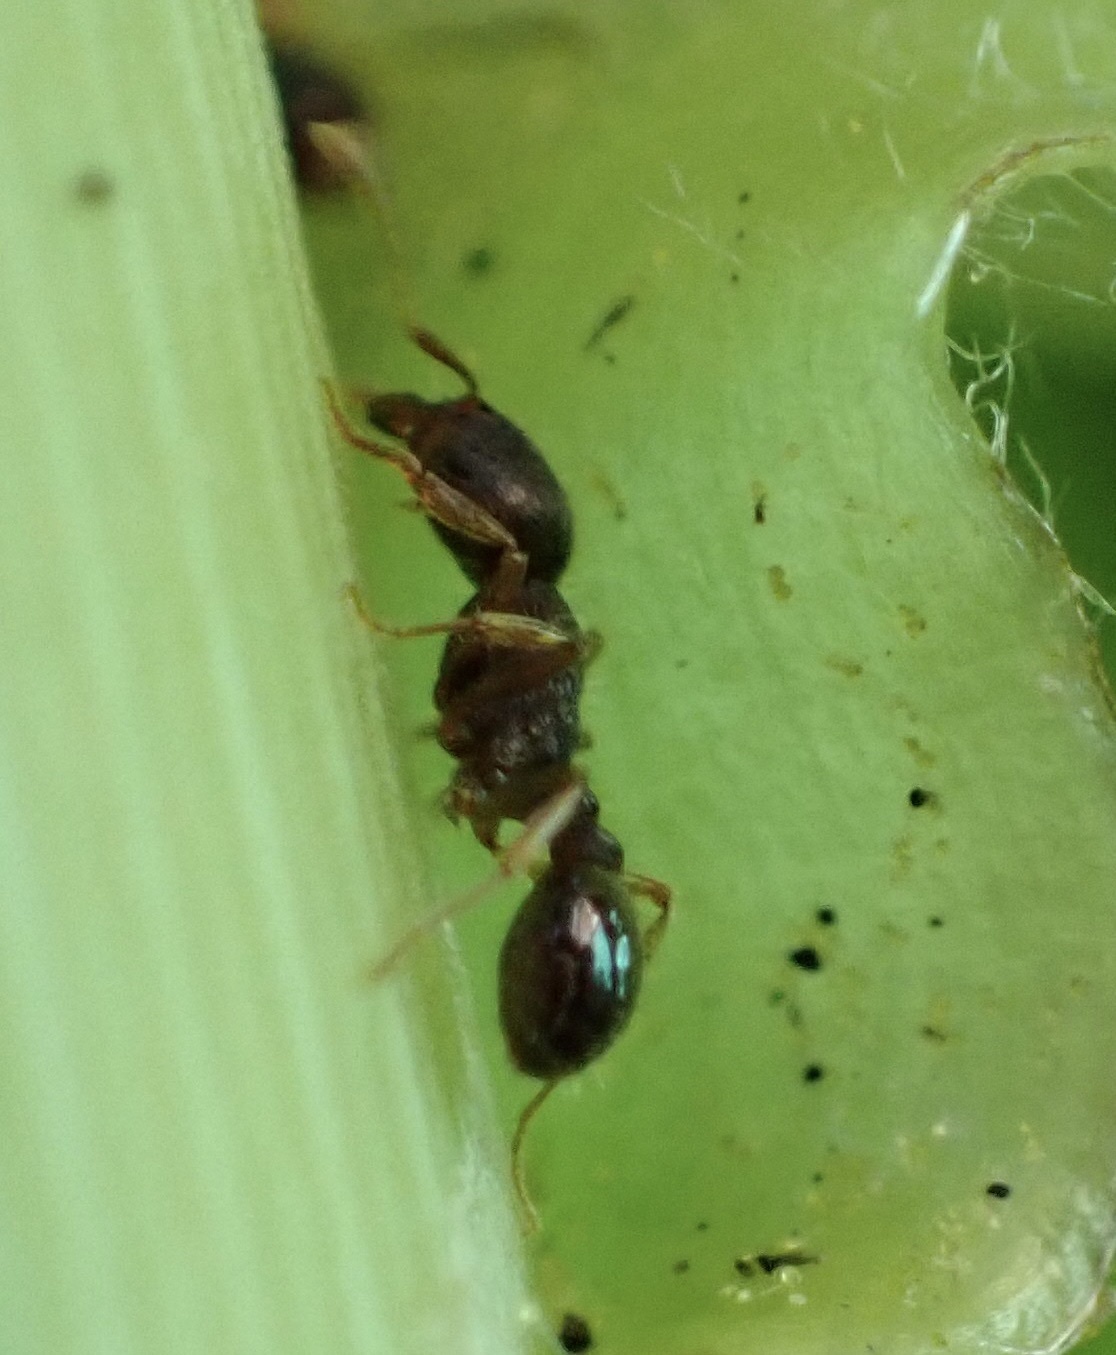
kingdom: Animalia
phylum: Arthropoda
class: Insecta
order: Hymenoptera
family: Formicidae
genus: Tetramorium
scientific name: Tetramorium immigrans
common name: Pavement ant
